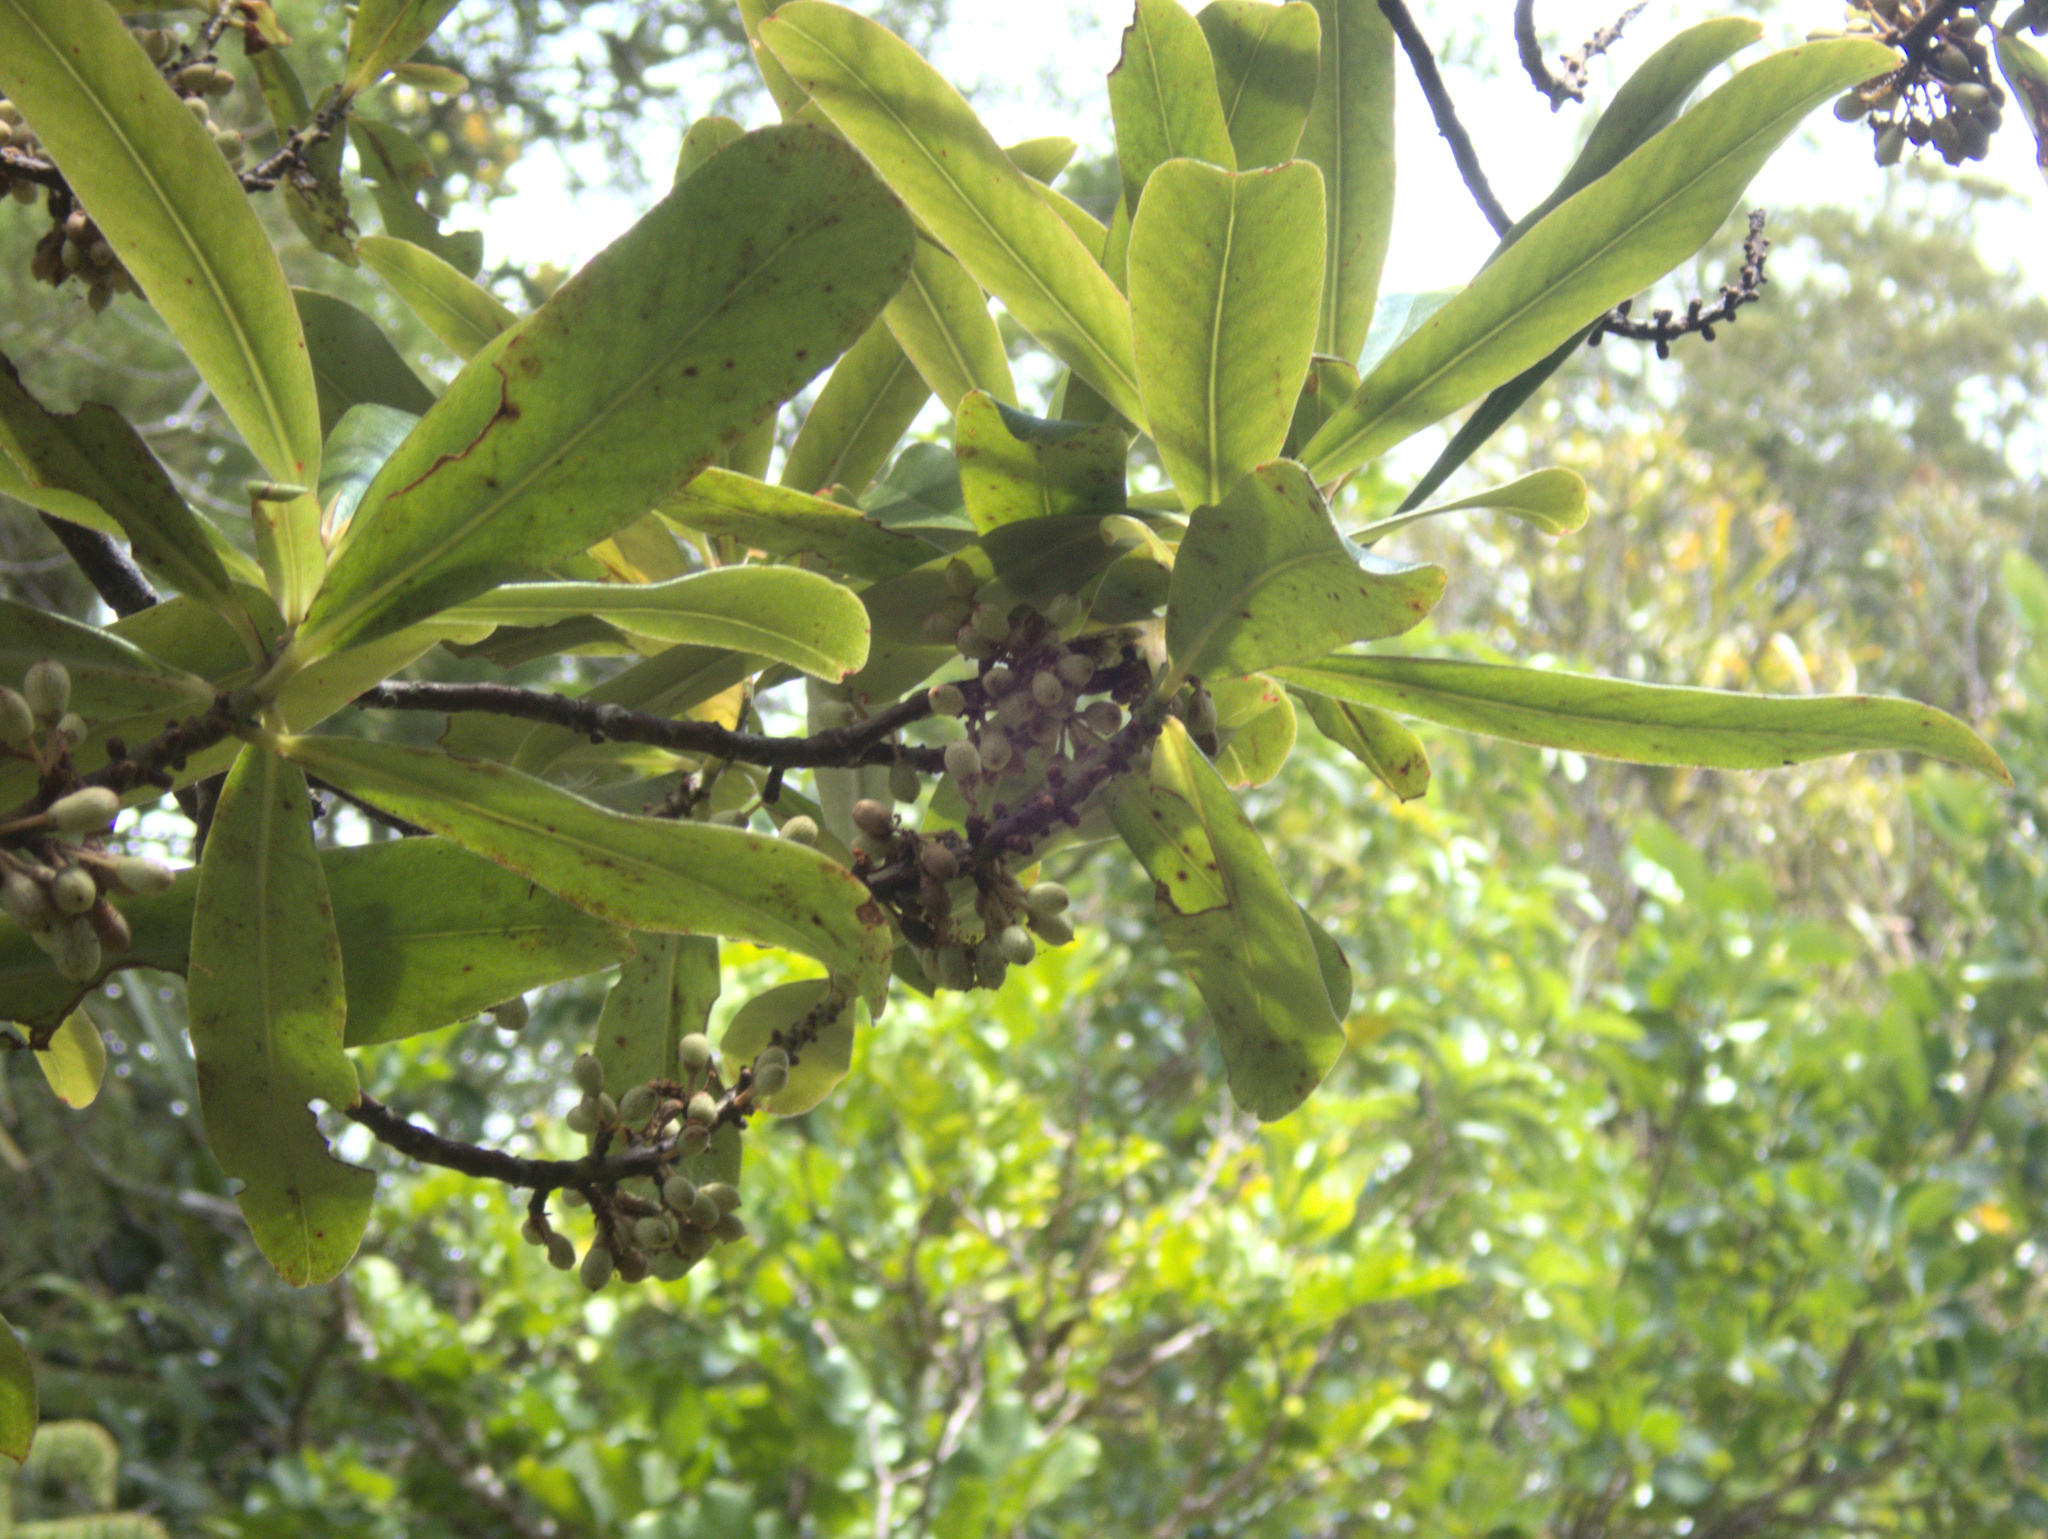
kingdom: Plantae
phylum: Tracheophyta
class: Magnoliopsida
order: Ericales
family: Primulaceae
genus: Myrsine
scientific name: Myrsine salicina
